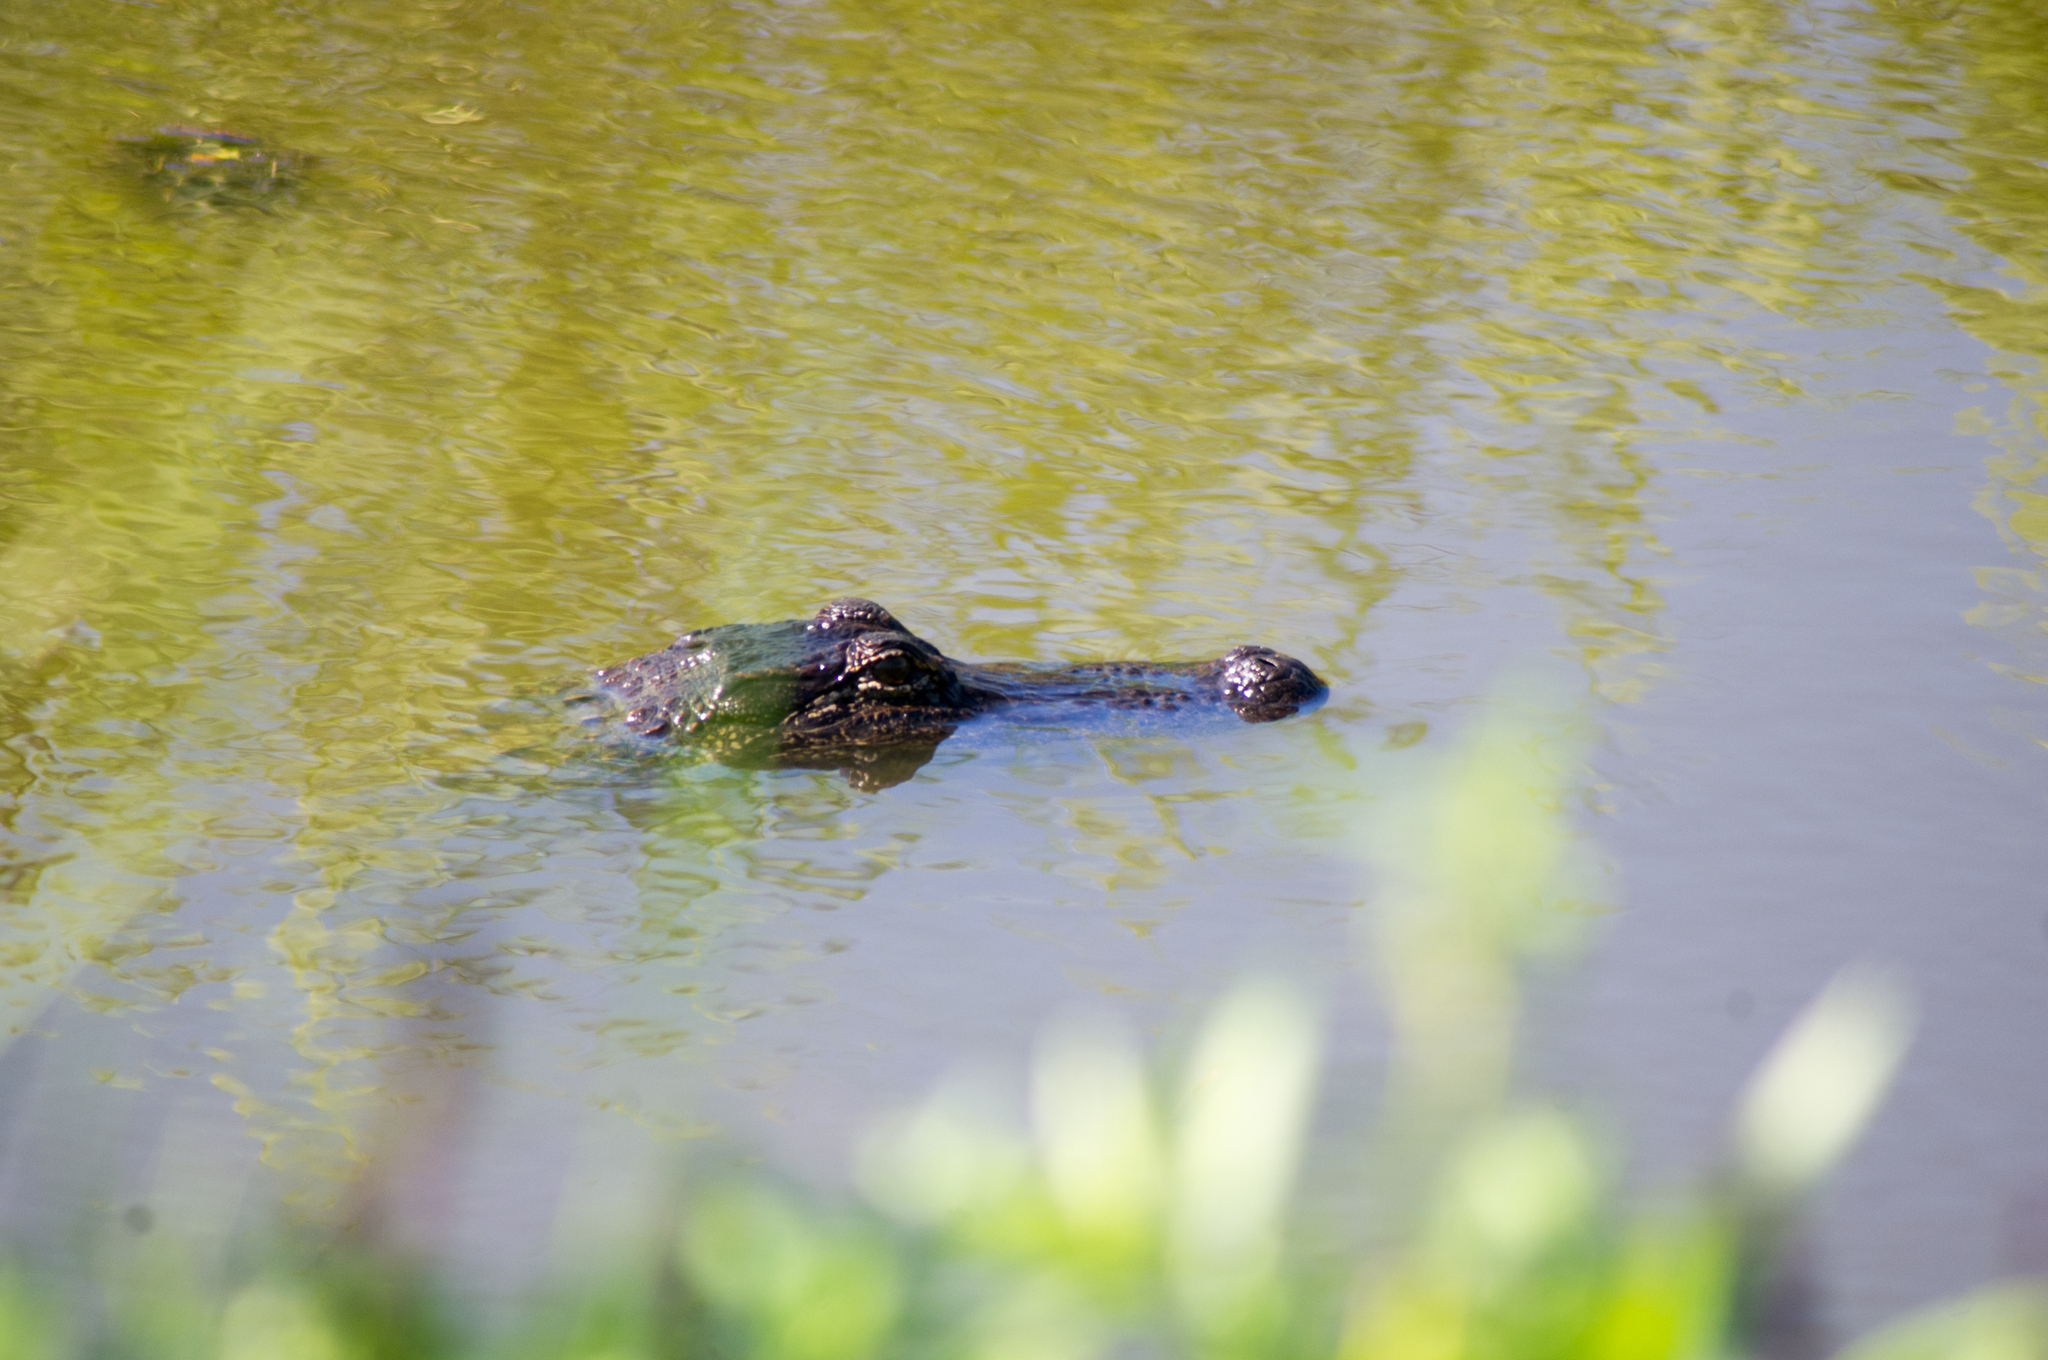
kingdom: Animalia
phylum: Chordata
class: Crocodylia
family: Alligatoridae
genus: Alligator
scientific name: Alligator mississippiensis
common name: American alligator
